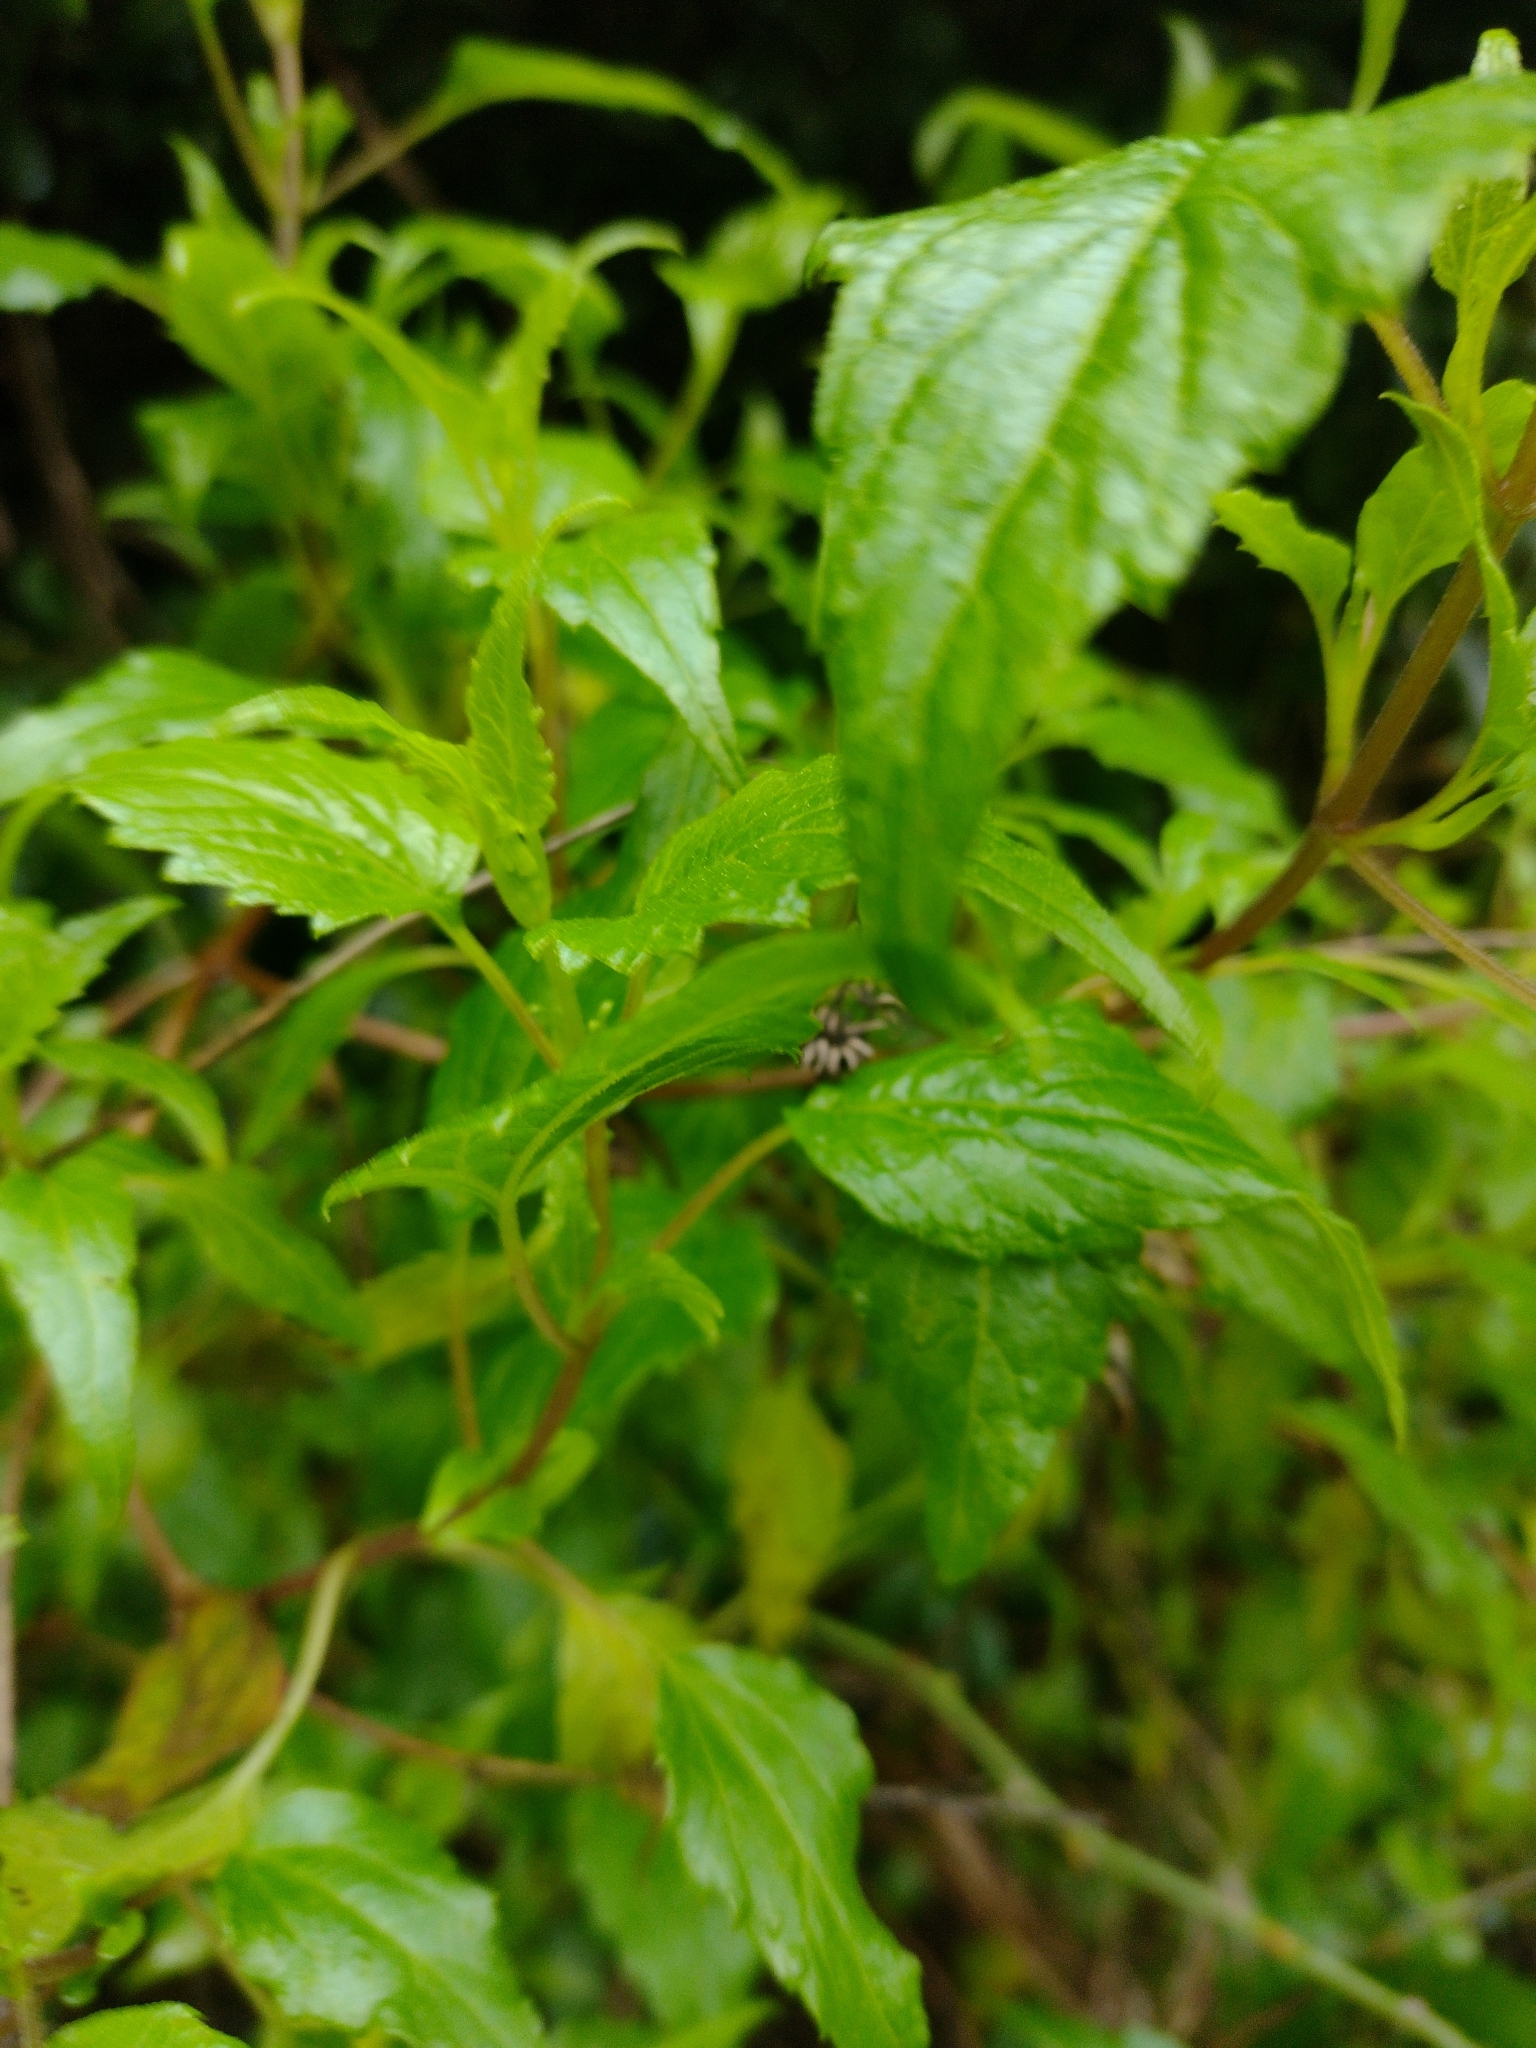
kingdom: Plantae
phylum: Tracheophyta
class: Magnoliopsida
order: Asterales
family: Asteraceae
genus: Ageratina
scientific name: Ageratina glechonophylla
